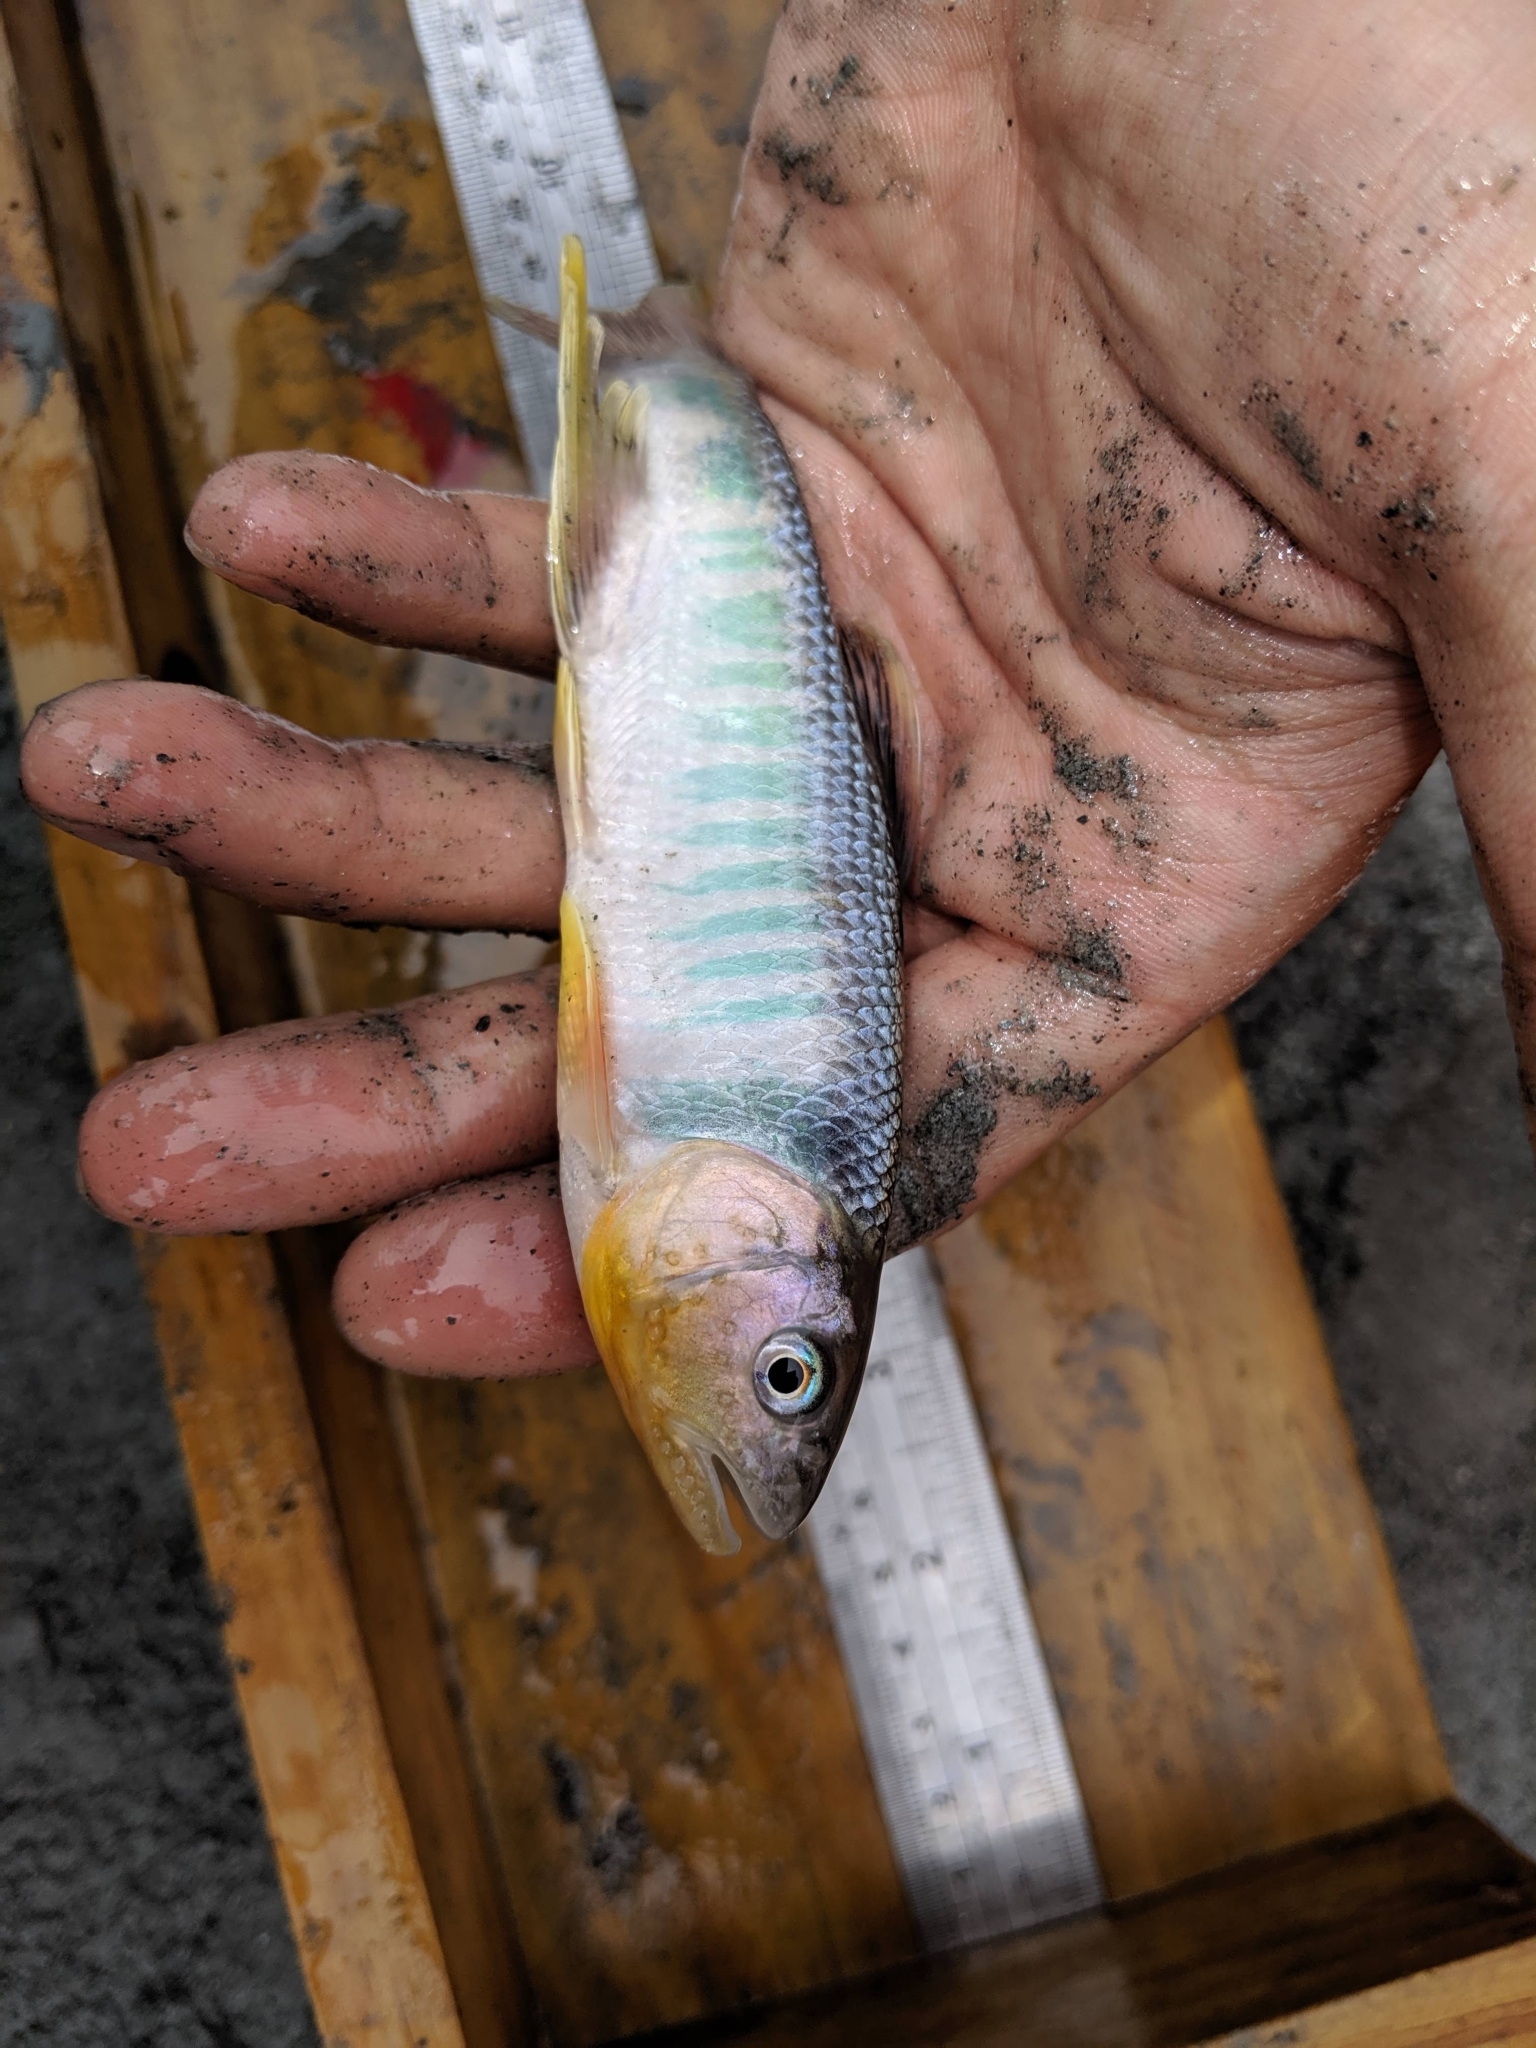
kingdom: Animalia
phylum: Chordata
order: Cypriniformes
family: Cyprinidae
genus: Opsariichthys
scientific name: Opsariichthys pachycephalus
